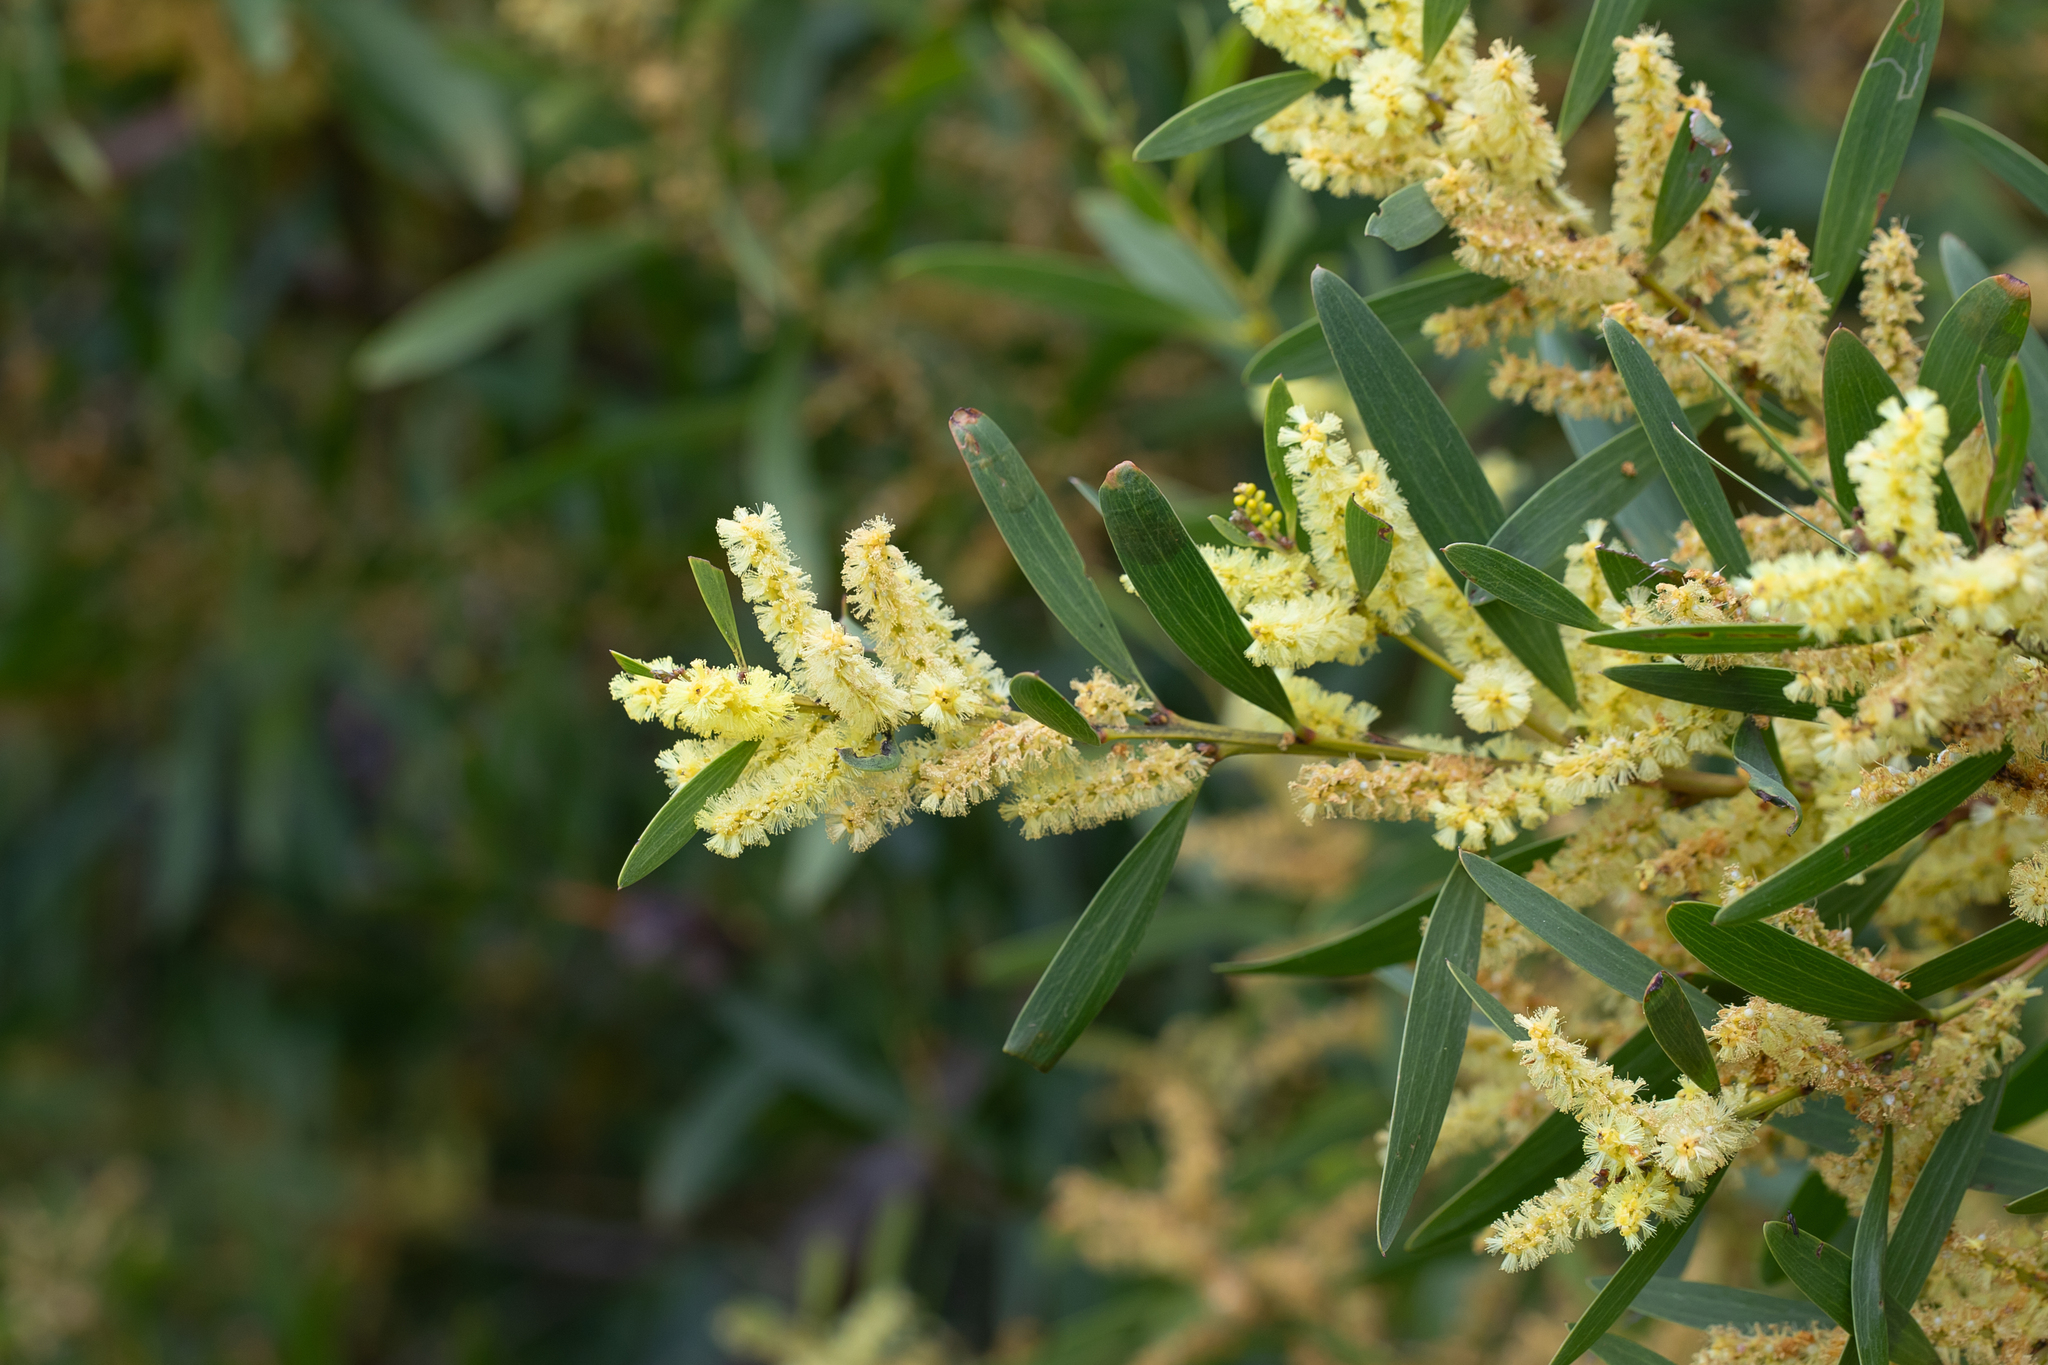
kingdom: Plantae
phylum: Tracheophyta
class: Magnoliopsida
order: Fabales
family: Fabaceae
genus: Acacia
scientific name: Acacia longifolia
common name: Sydney golden wattle
